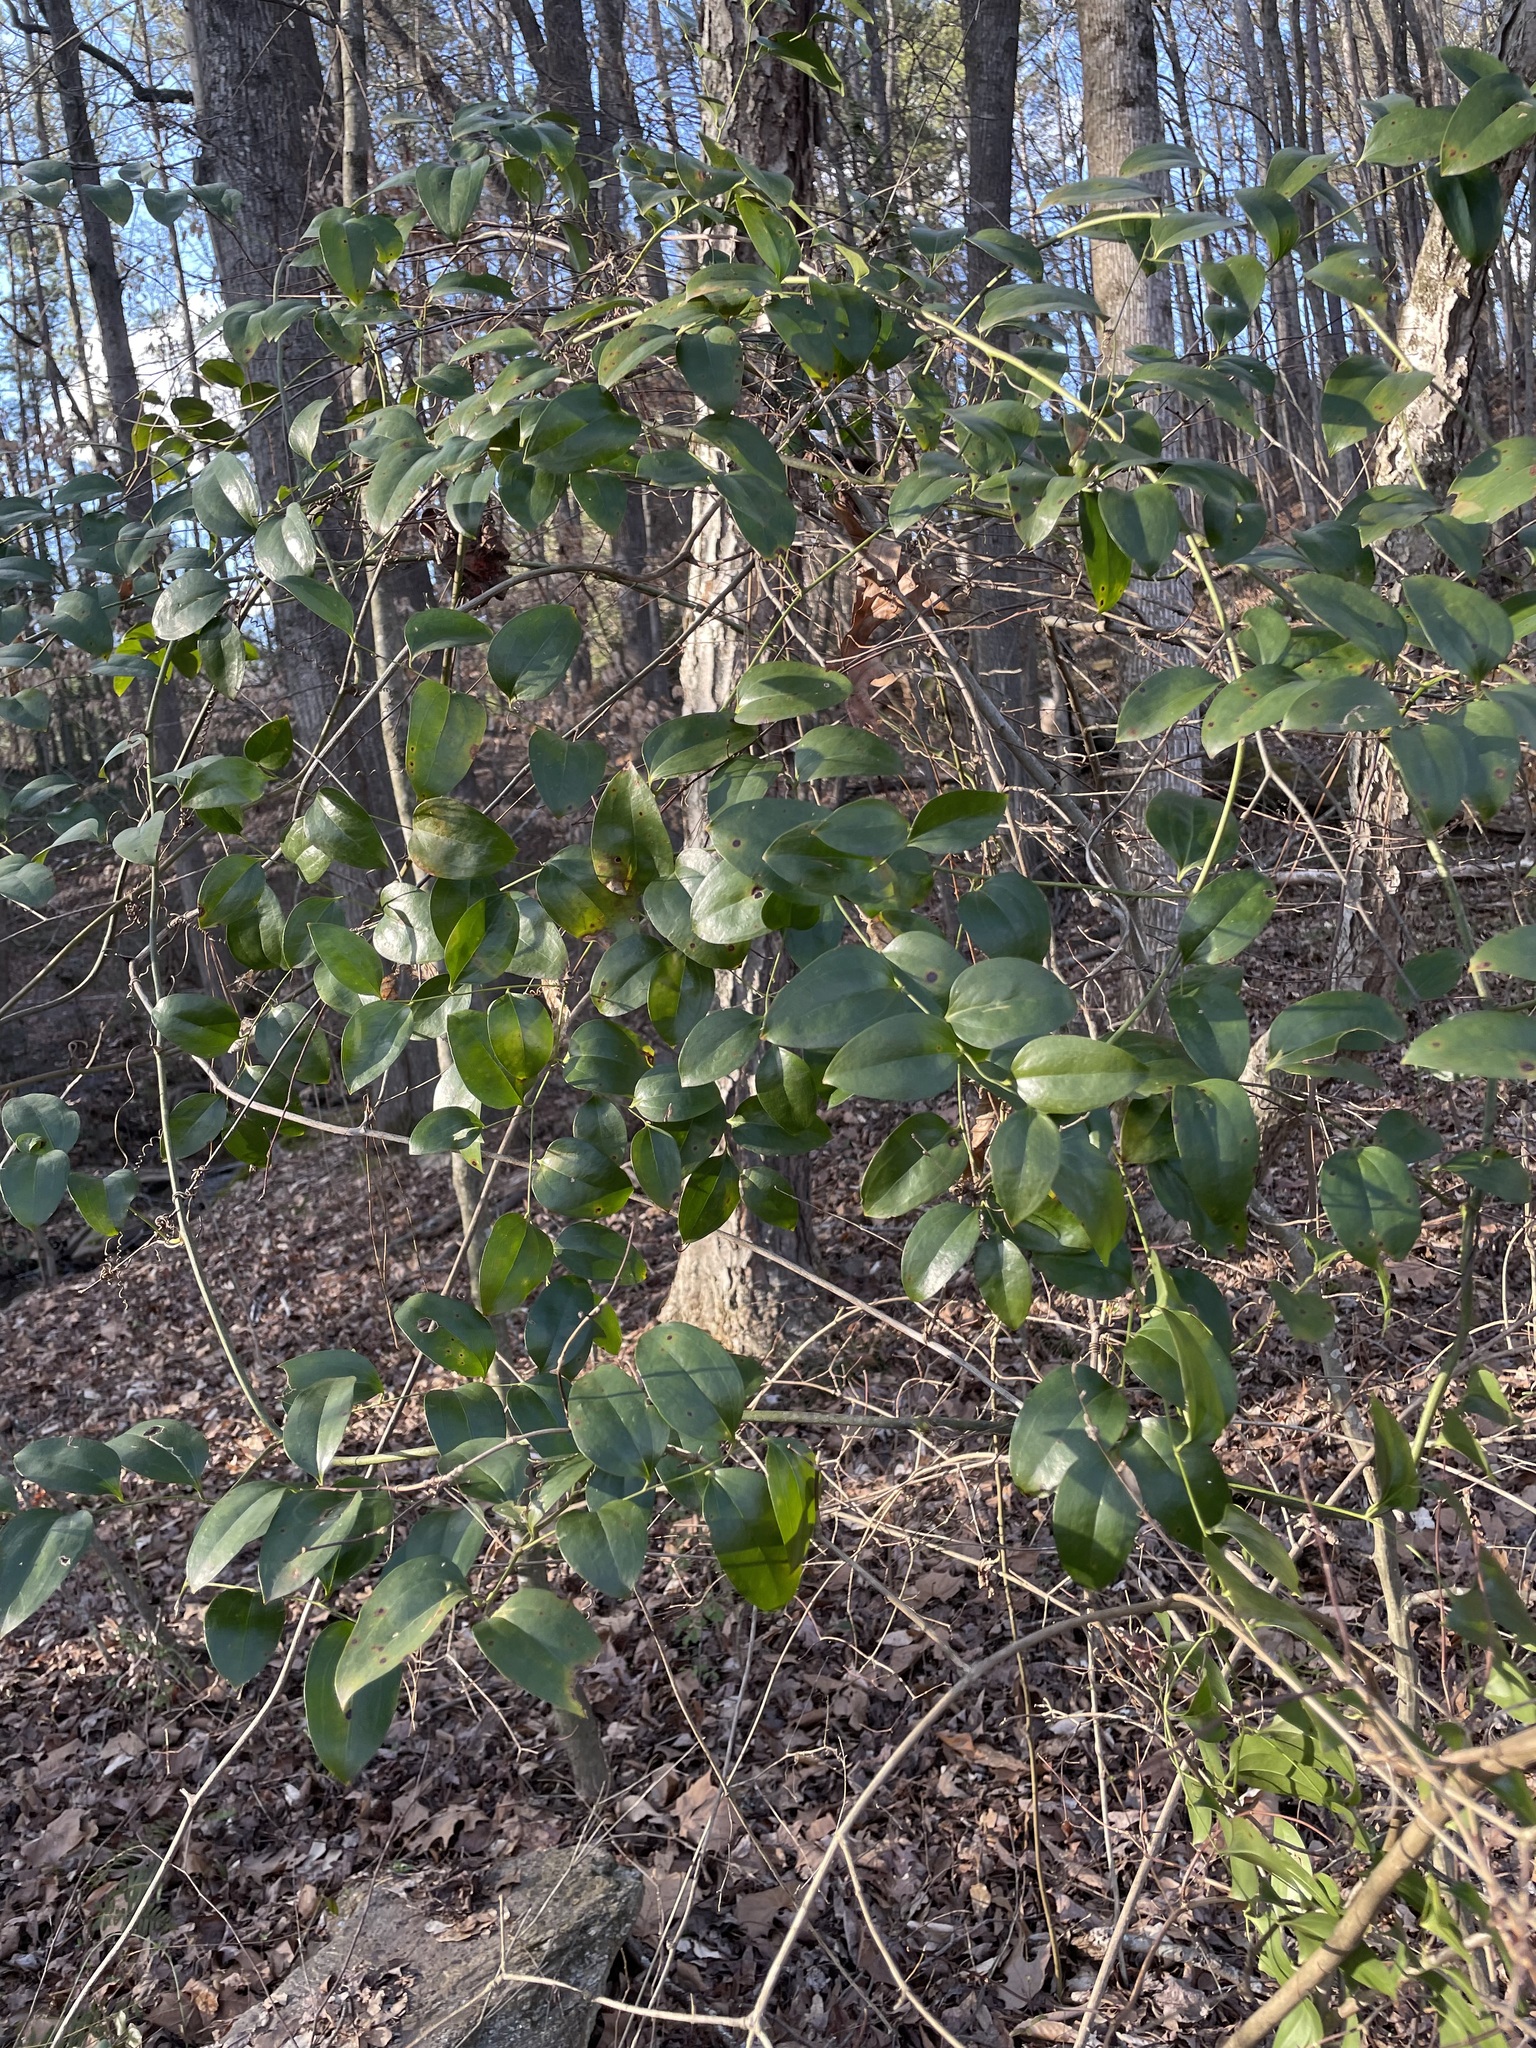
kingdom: Plantae
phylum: Tracheophyta
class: Liliopsida
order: Liliales
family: Smilacaceae
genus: Smilax
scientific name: Smilax maritima
